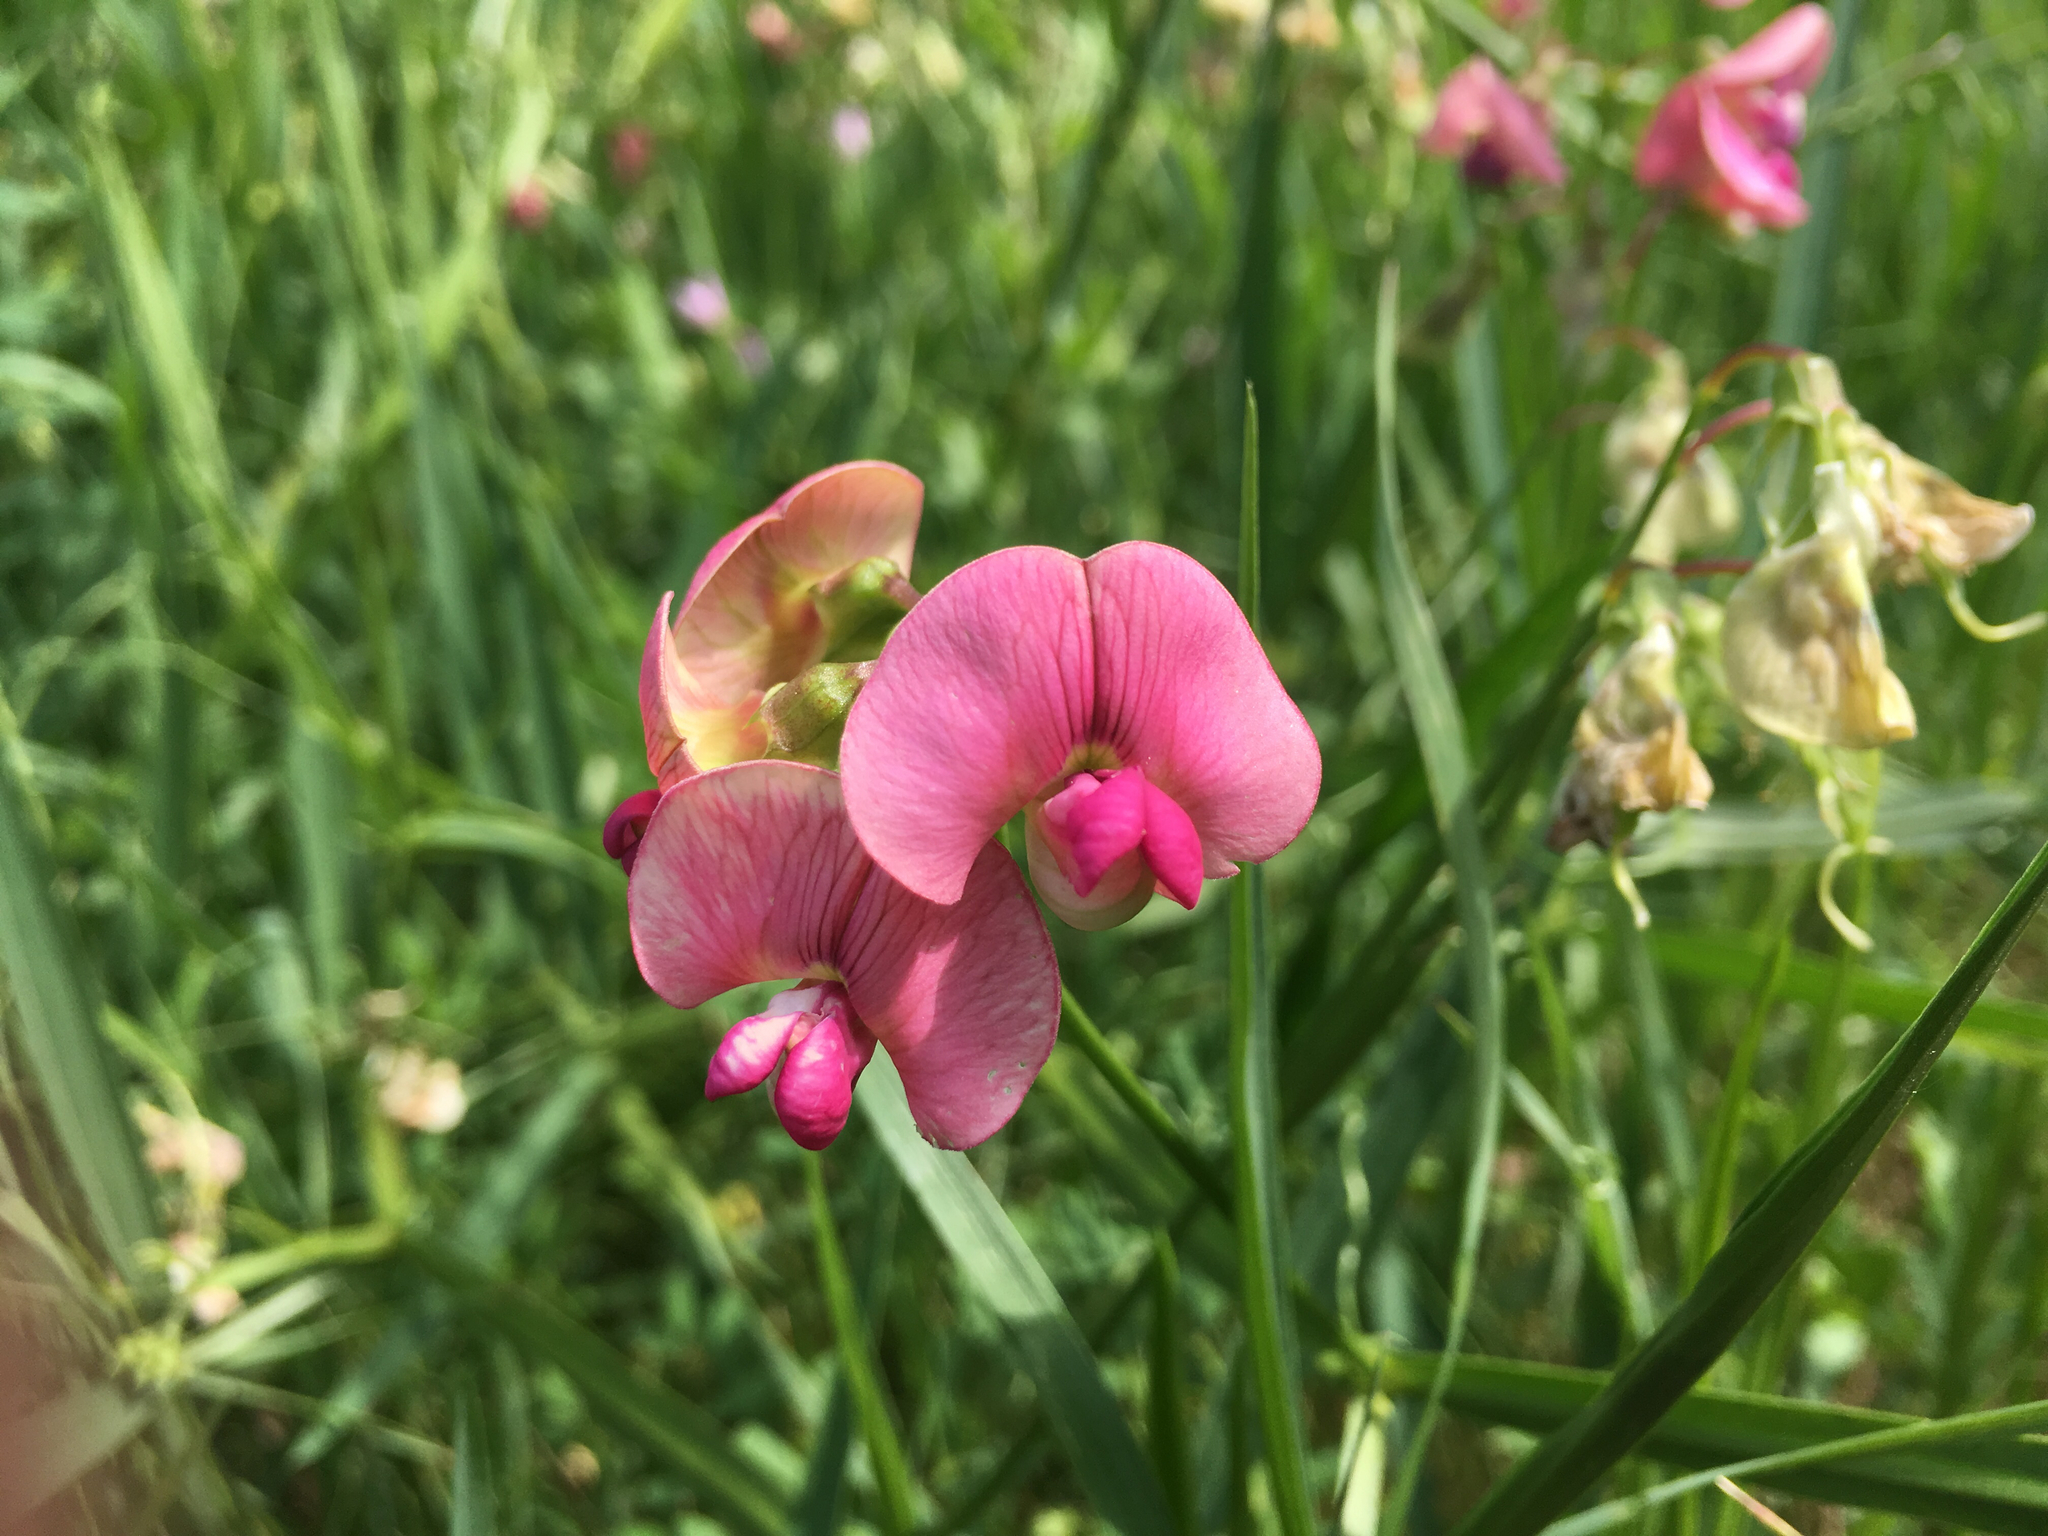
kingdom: Plantae
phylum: Tracheophyta
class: Magnoliopsida
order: Fabales
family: Fabaceae
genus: Lathyrus
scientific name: Lathyrus sylvestris
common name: Flat pea
